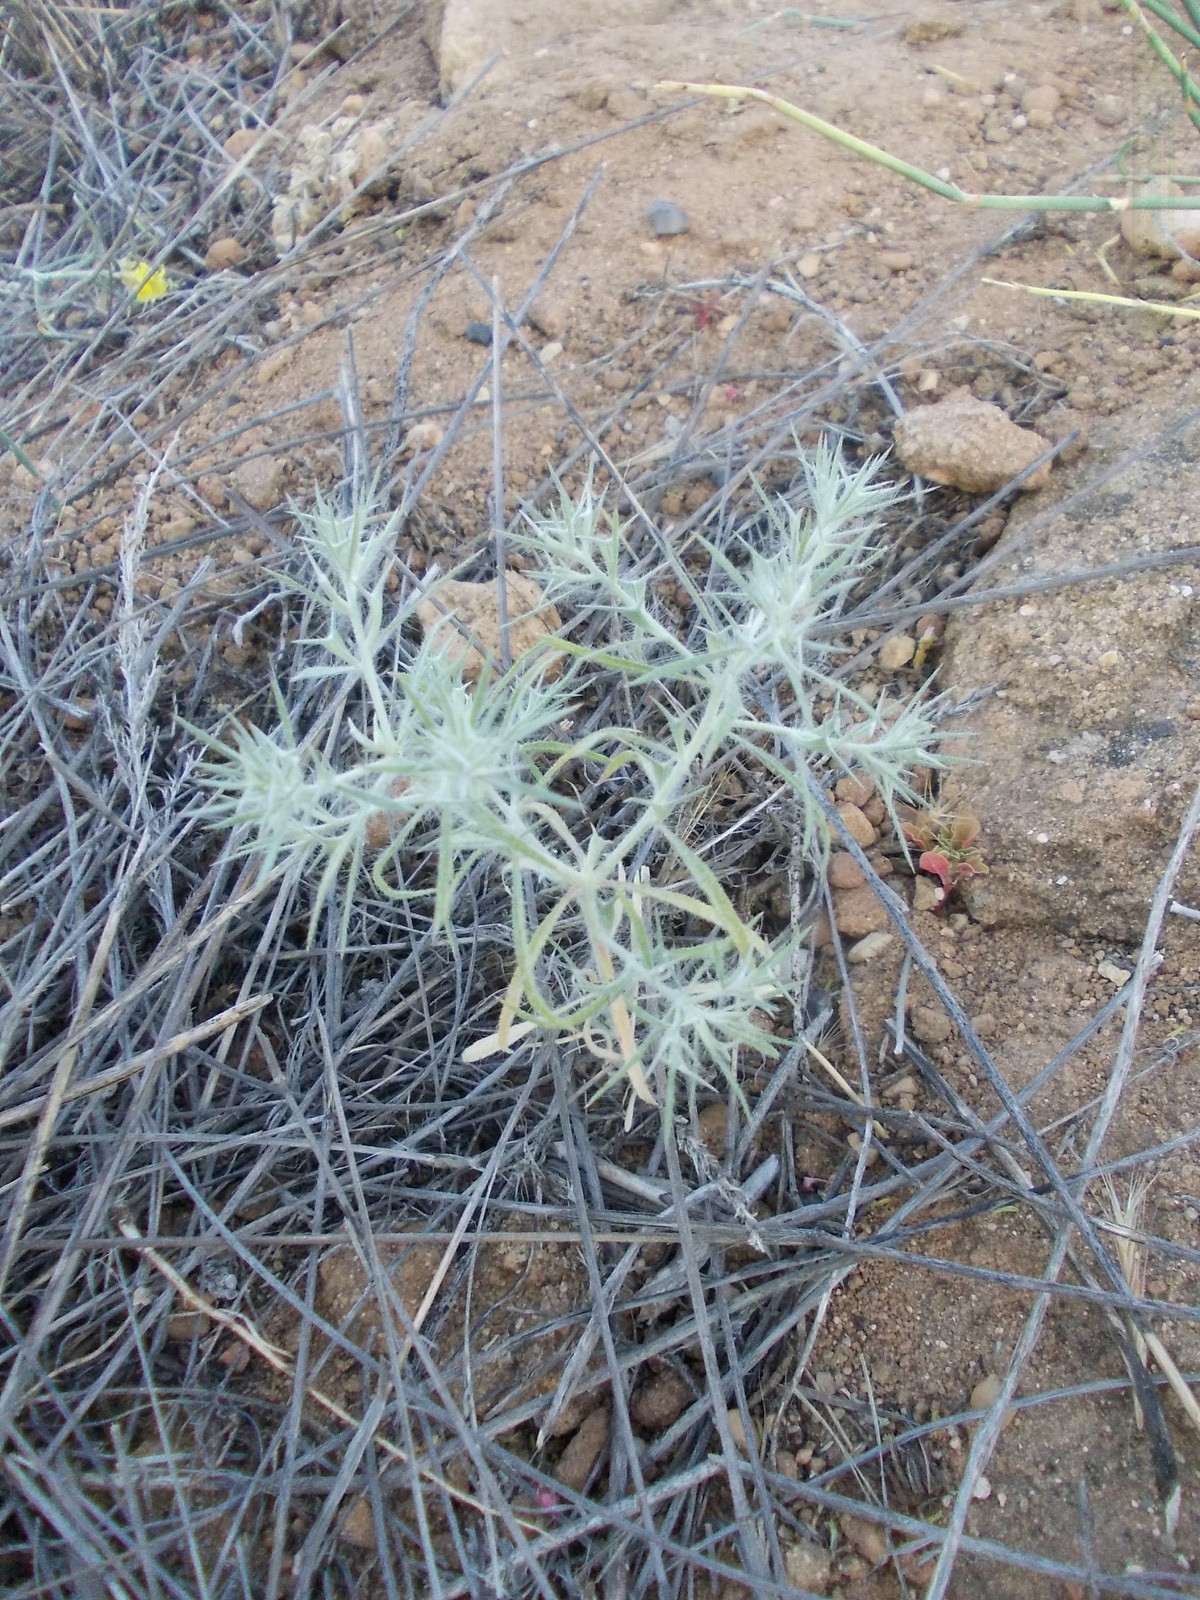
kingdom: Plantae
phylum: Tracheophyta
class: Magnoliopsida
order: Caryophyllales
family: Amaranthaceae
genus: Ceratocarpus
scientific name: Ceratocarpus arenarius
